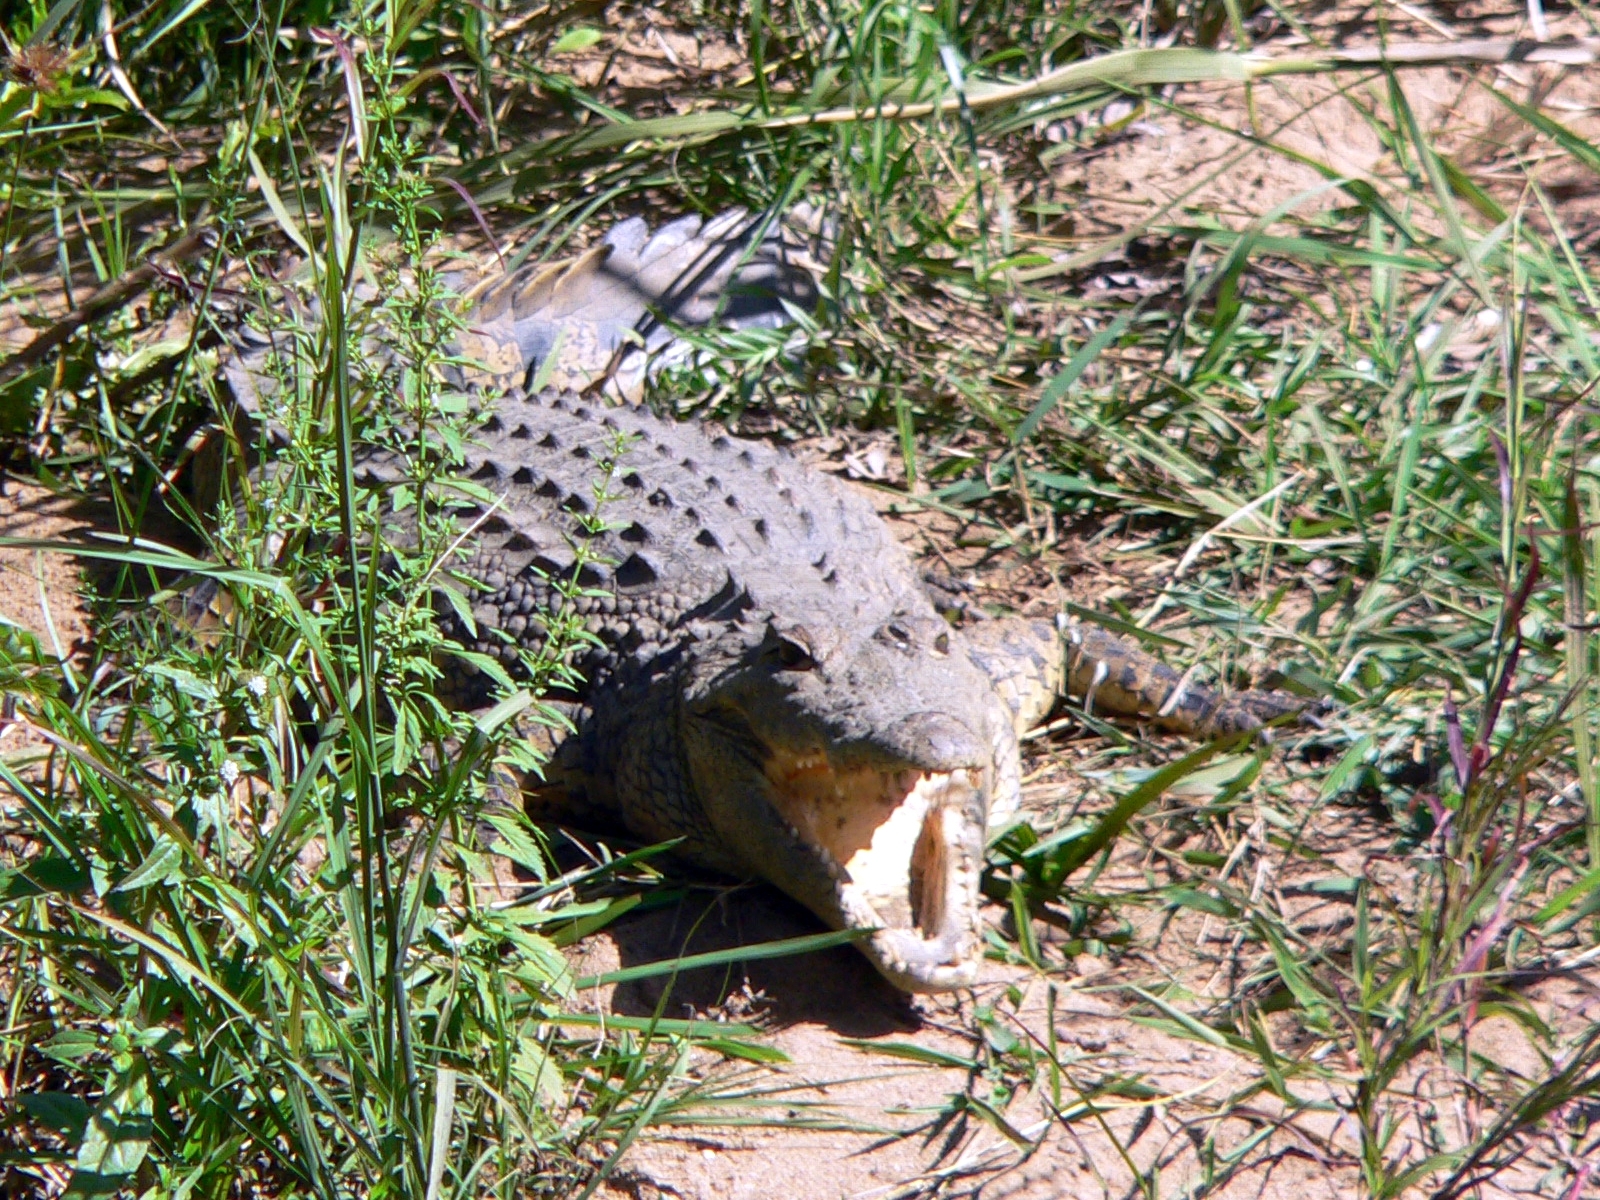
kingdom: Animalia
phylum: Chordata
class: Crocodylia
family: Crocodylidae
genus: Crocodylus
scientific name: Crocodylus niloticus
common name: Nile crocodile
